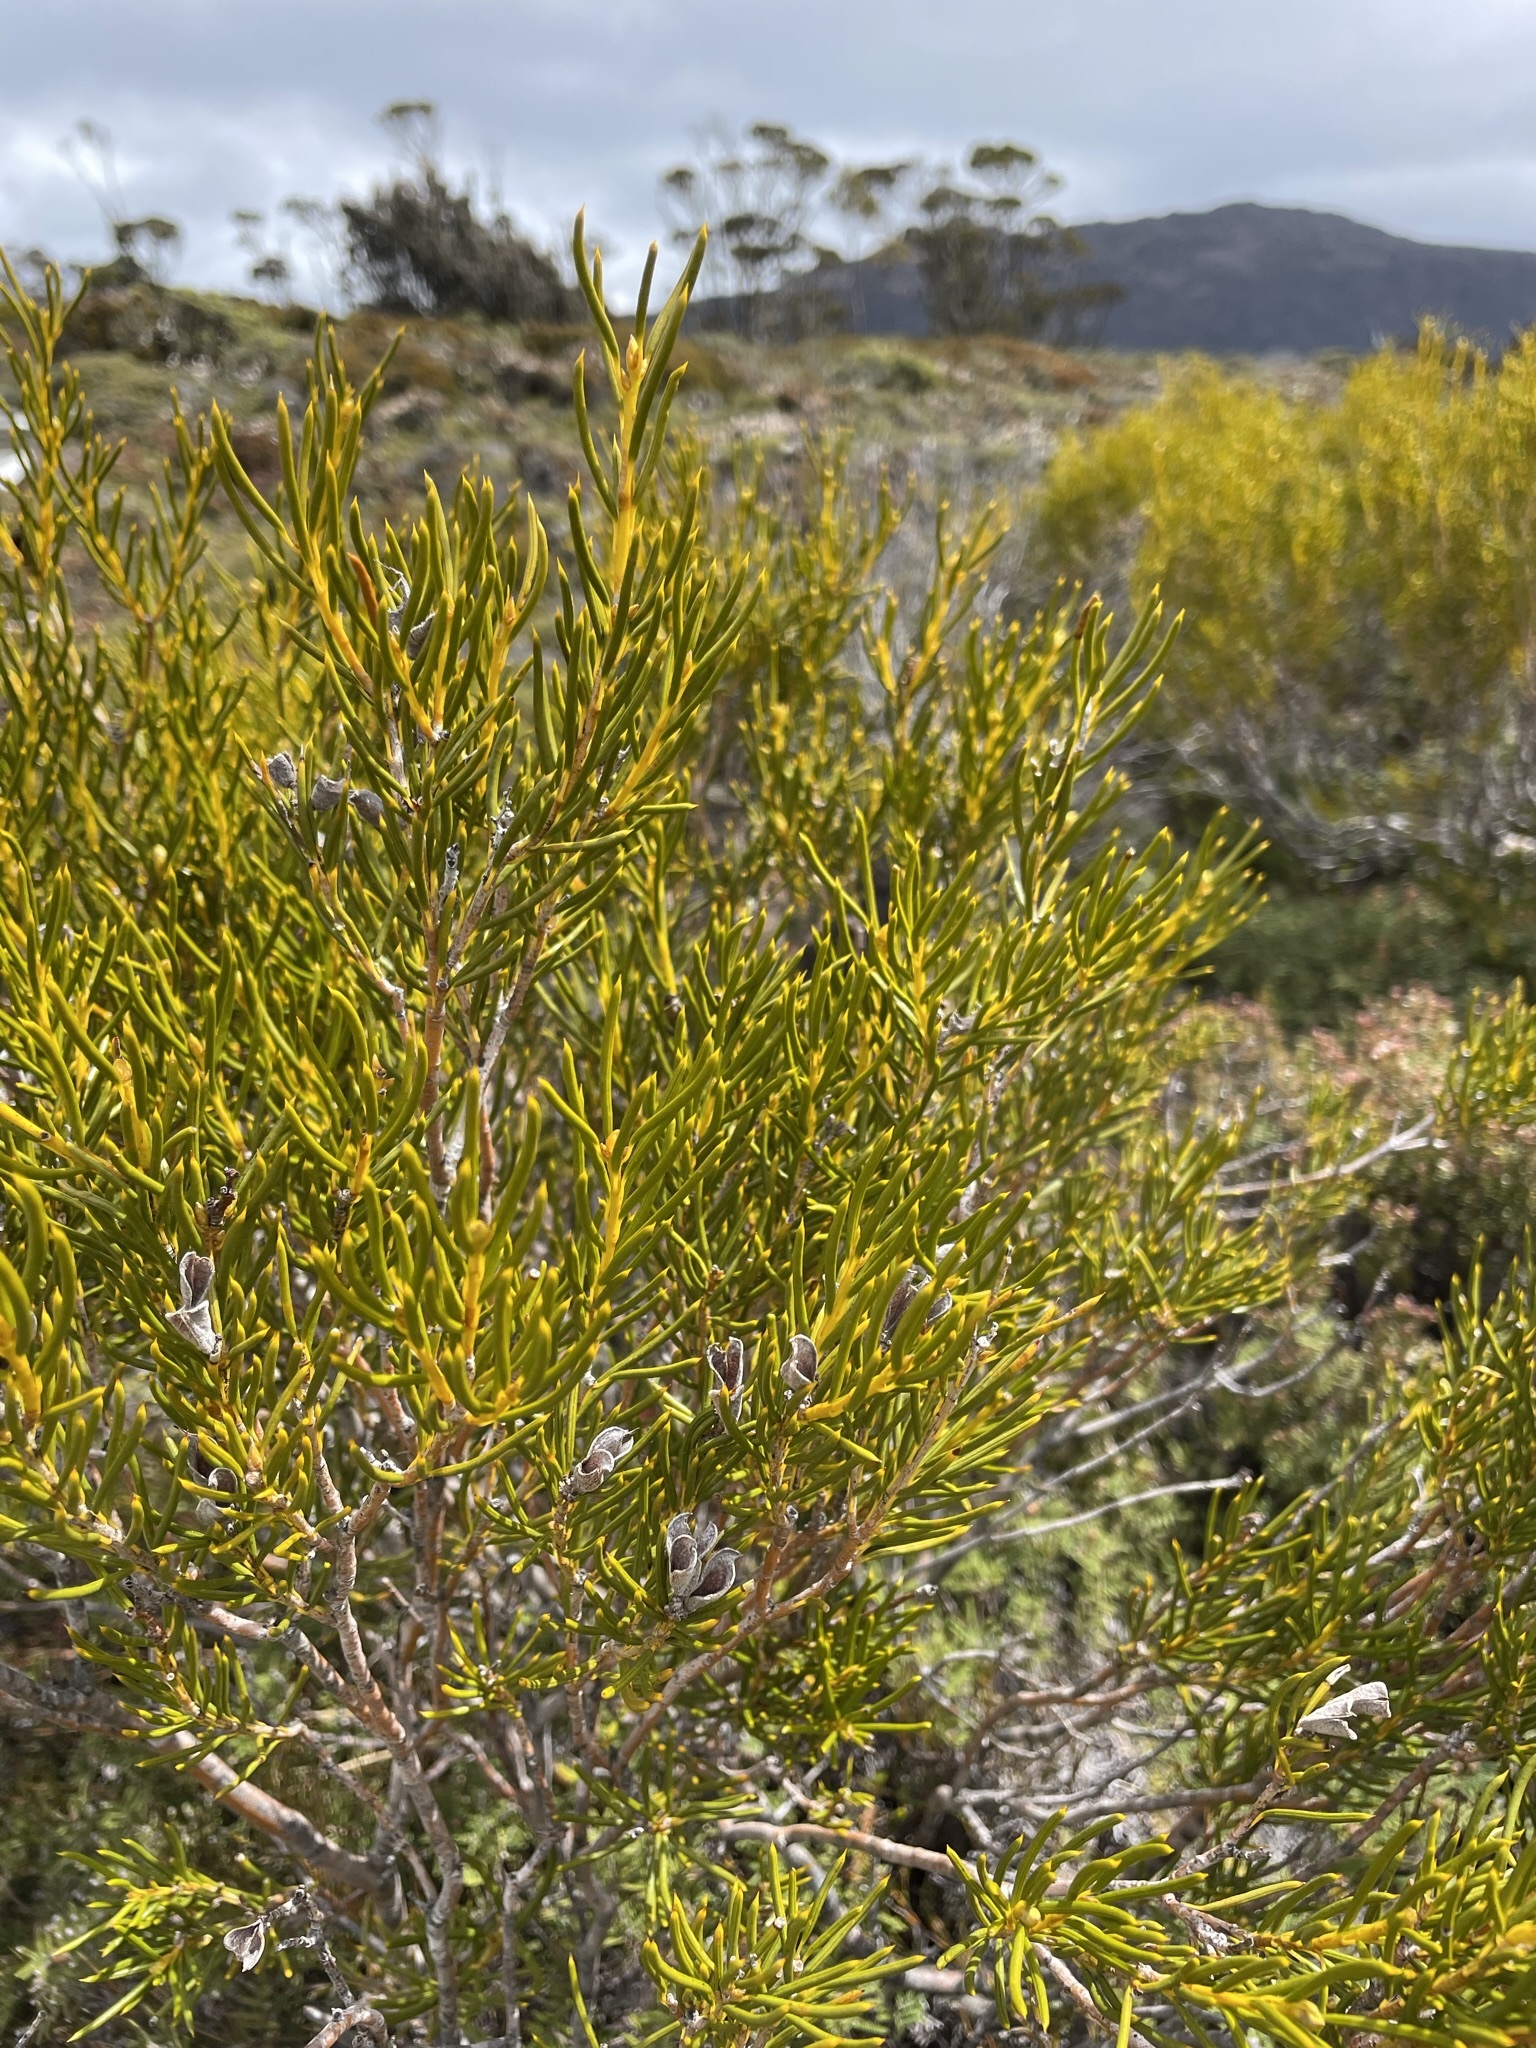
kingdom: Plantae
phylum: Tracheophyta
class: Magnoliopsida
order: Proteales
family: Proteaceae
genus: Orites
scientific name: Orites acicularis
